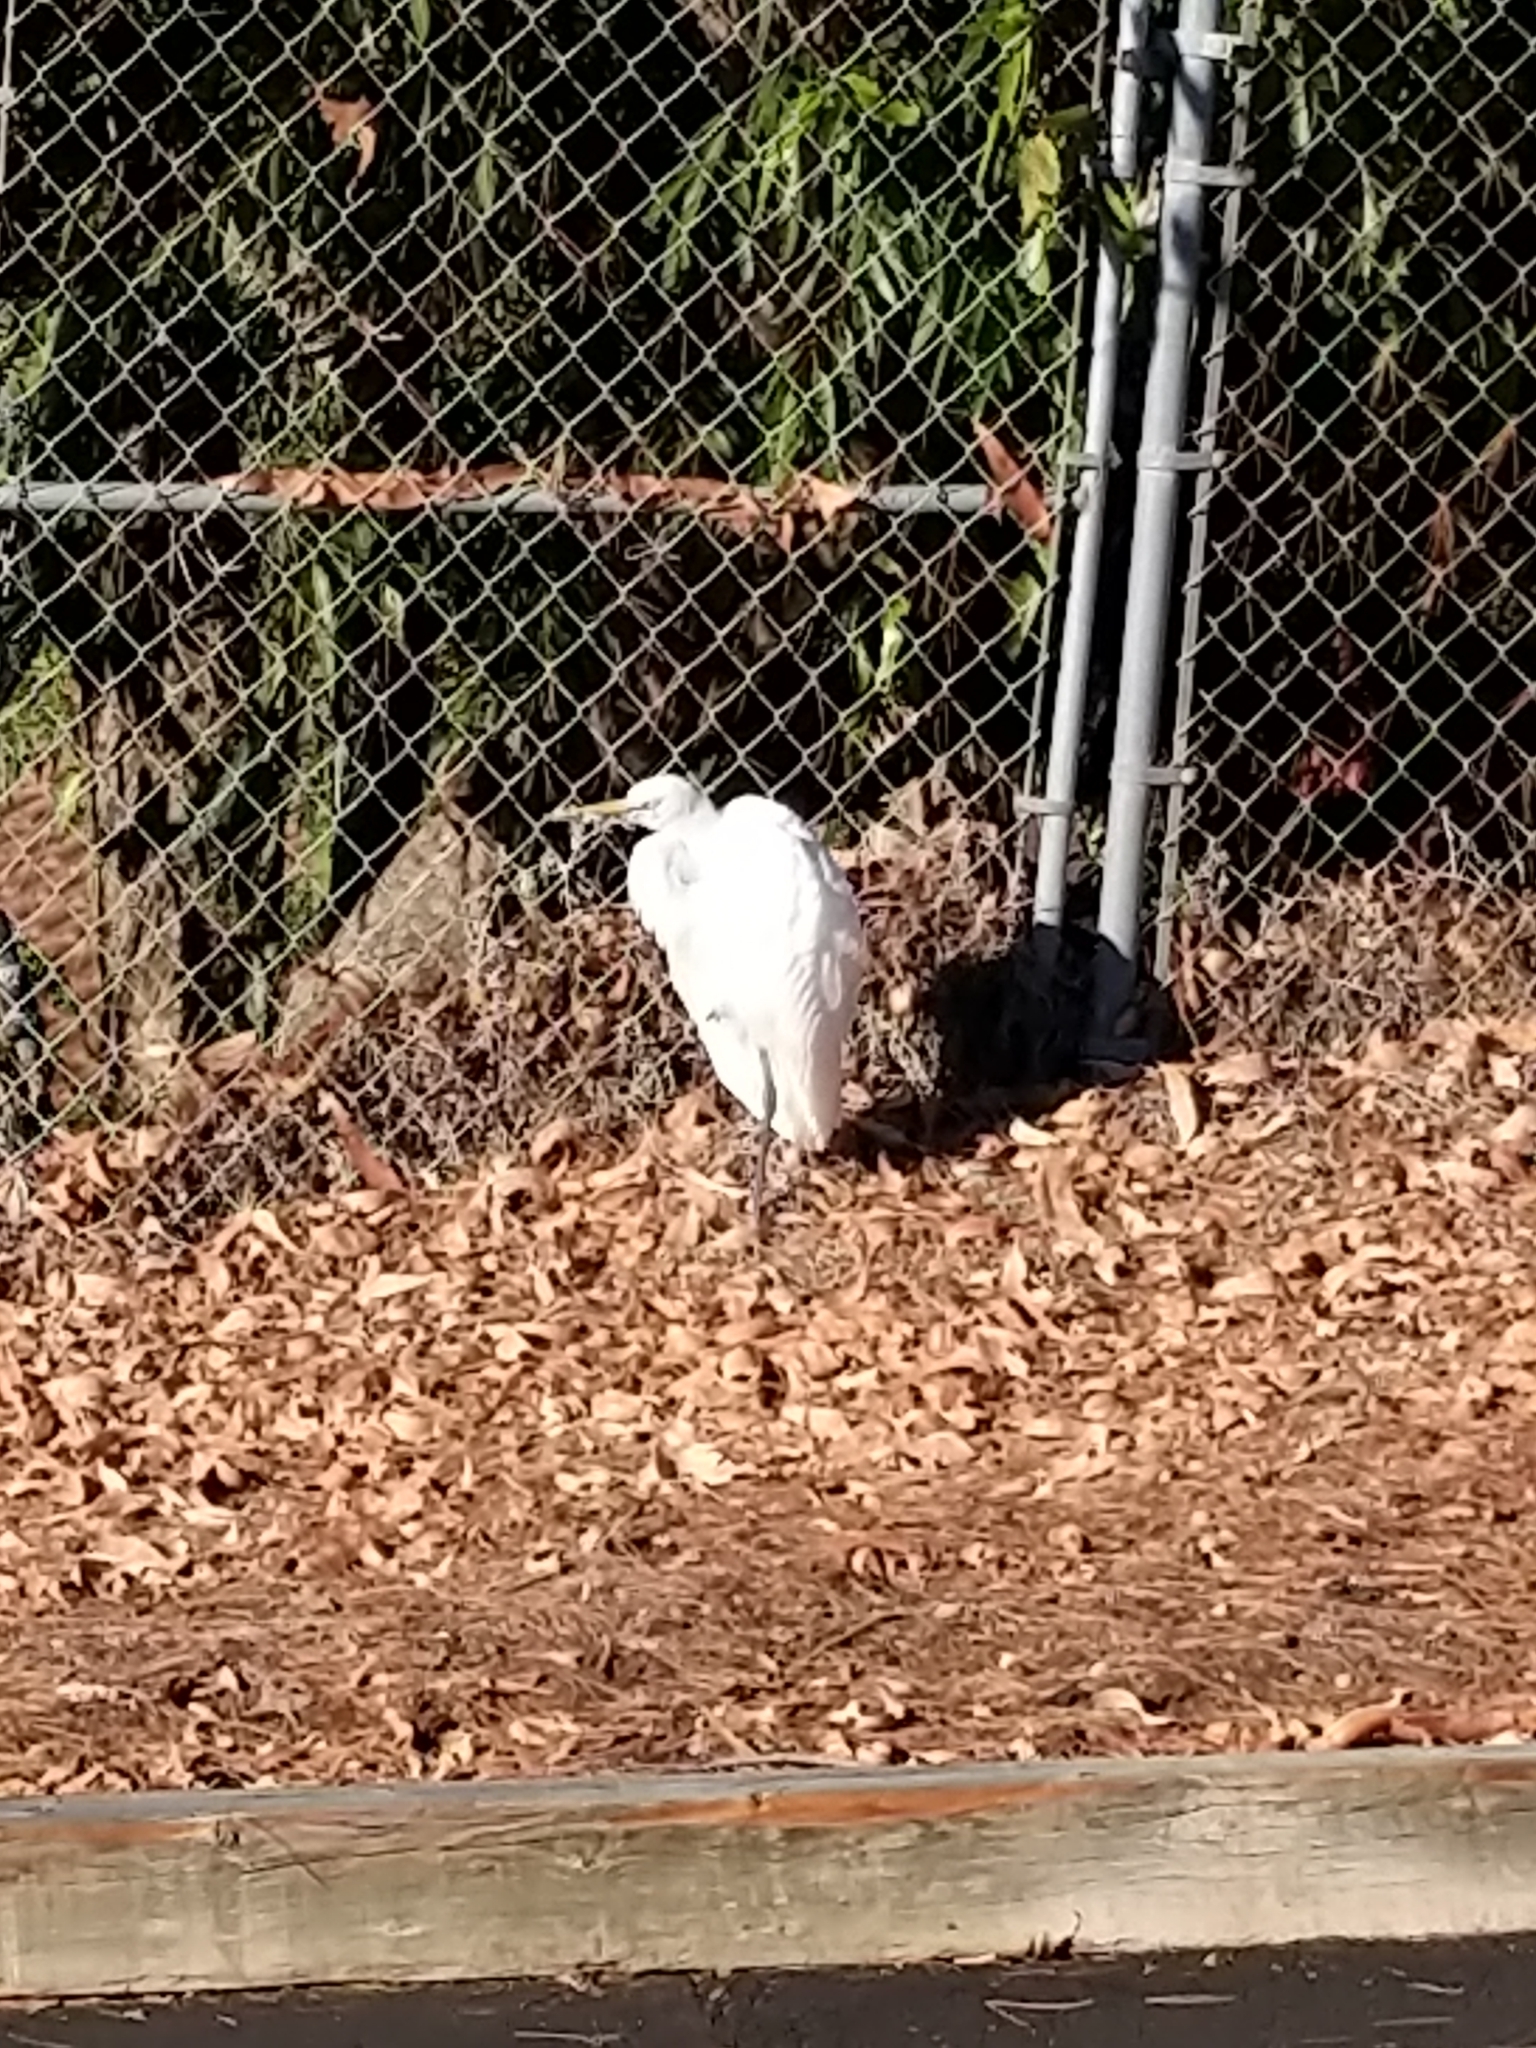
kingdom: Animalia
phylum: Chordata
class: Aves
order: Pelecaniformes
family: Ardeidae
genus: Ardea
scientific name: Ardea alba
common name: Great egret
